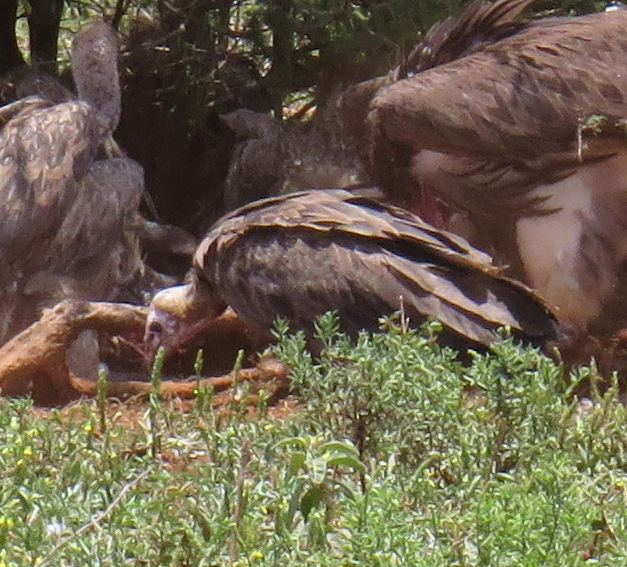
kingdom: Animalia
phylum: Chordata
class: Aves
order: Accipitriformes
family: Accipitridae
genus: Necrosyrtes
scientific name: Necrosyrtes monachus
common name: Hooded vulture
